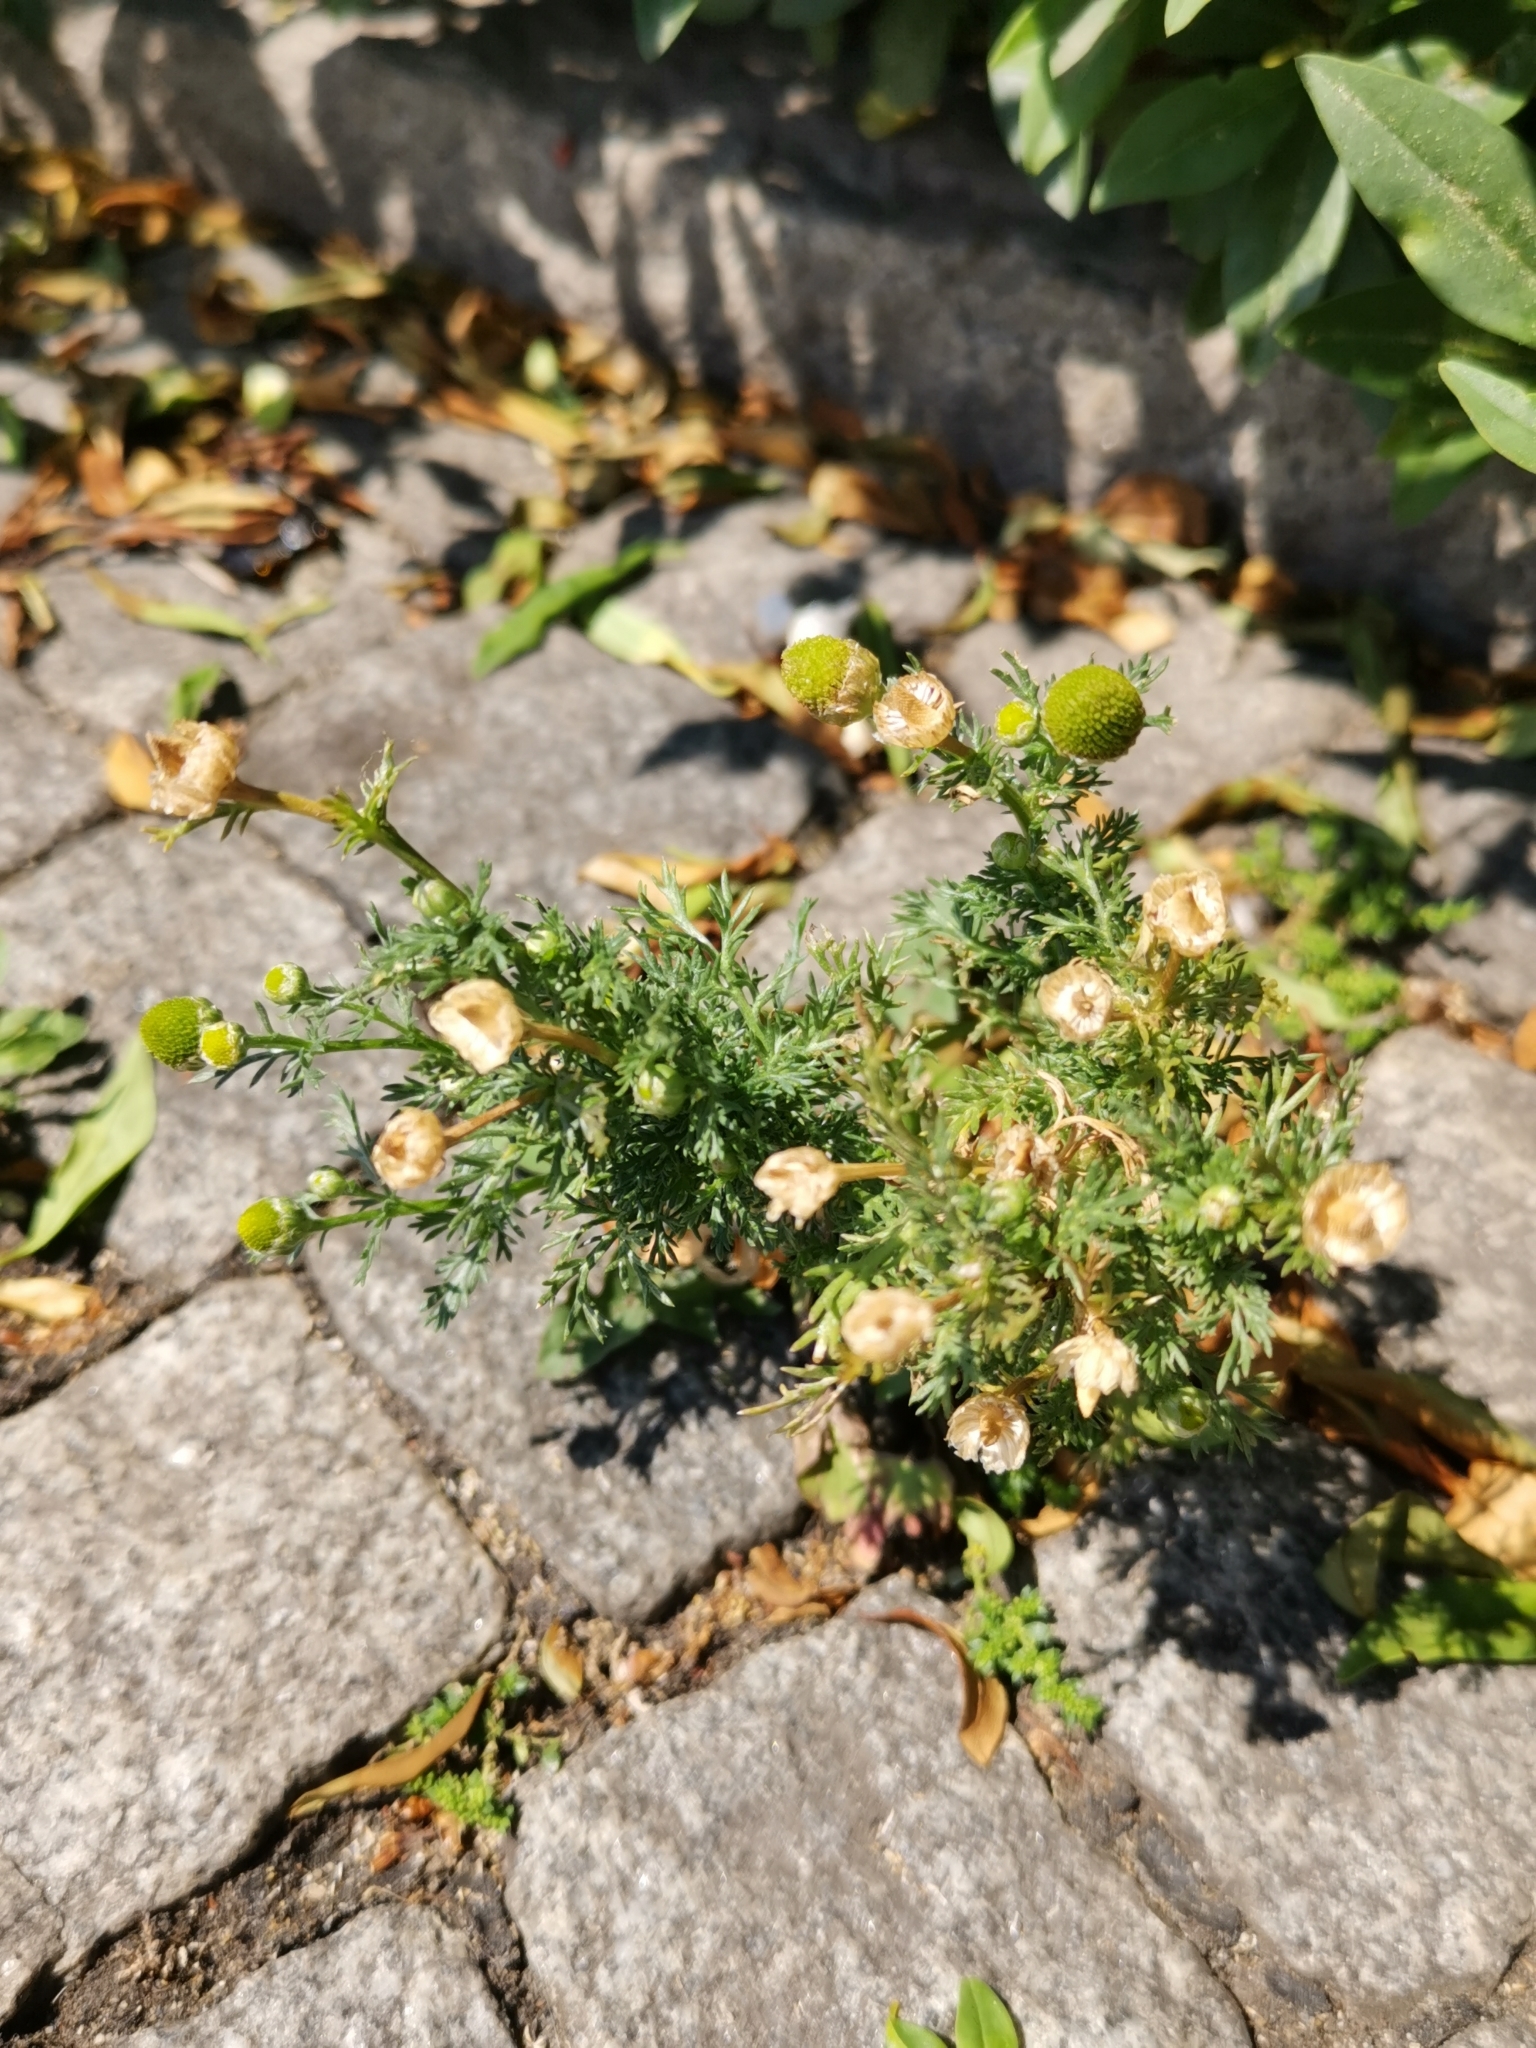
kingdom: Plantae
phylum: Tracheophyta
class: Magnoliopsida
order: Asterales
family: Asteraceae
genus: Matricaria
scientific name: Matricaria discoidea
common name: Disc mayweed
